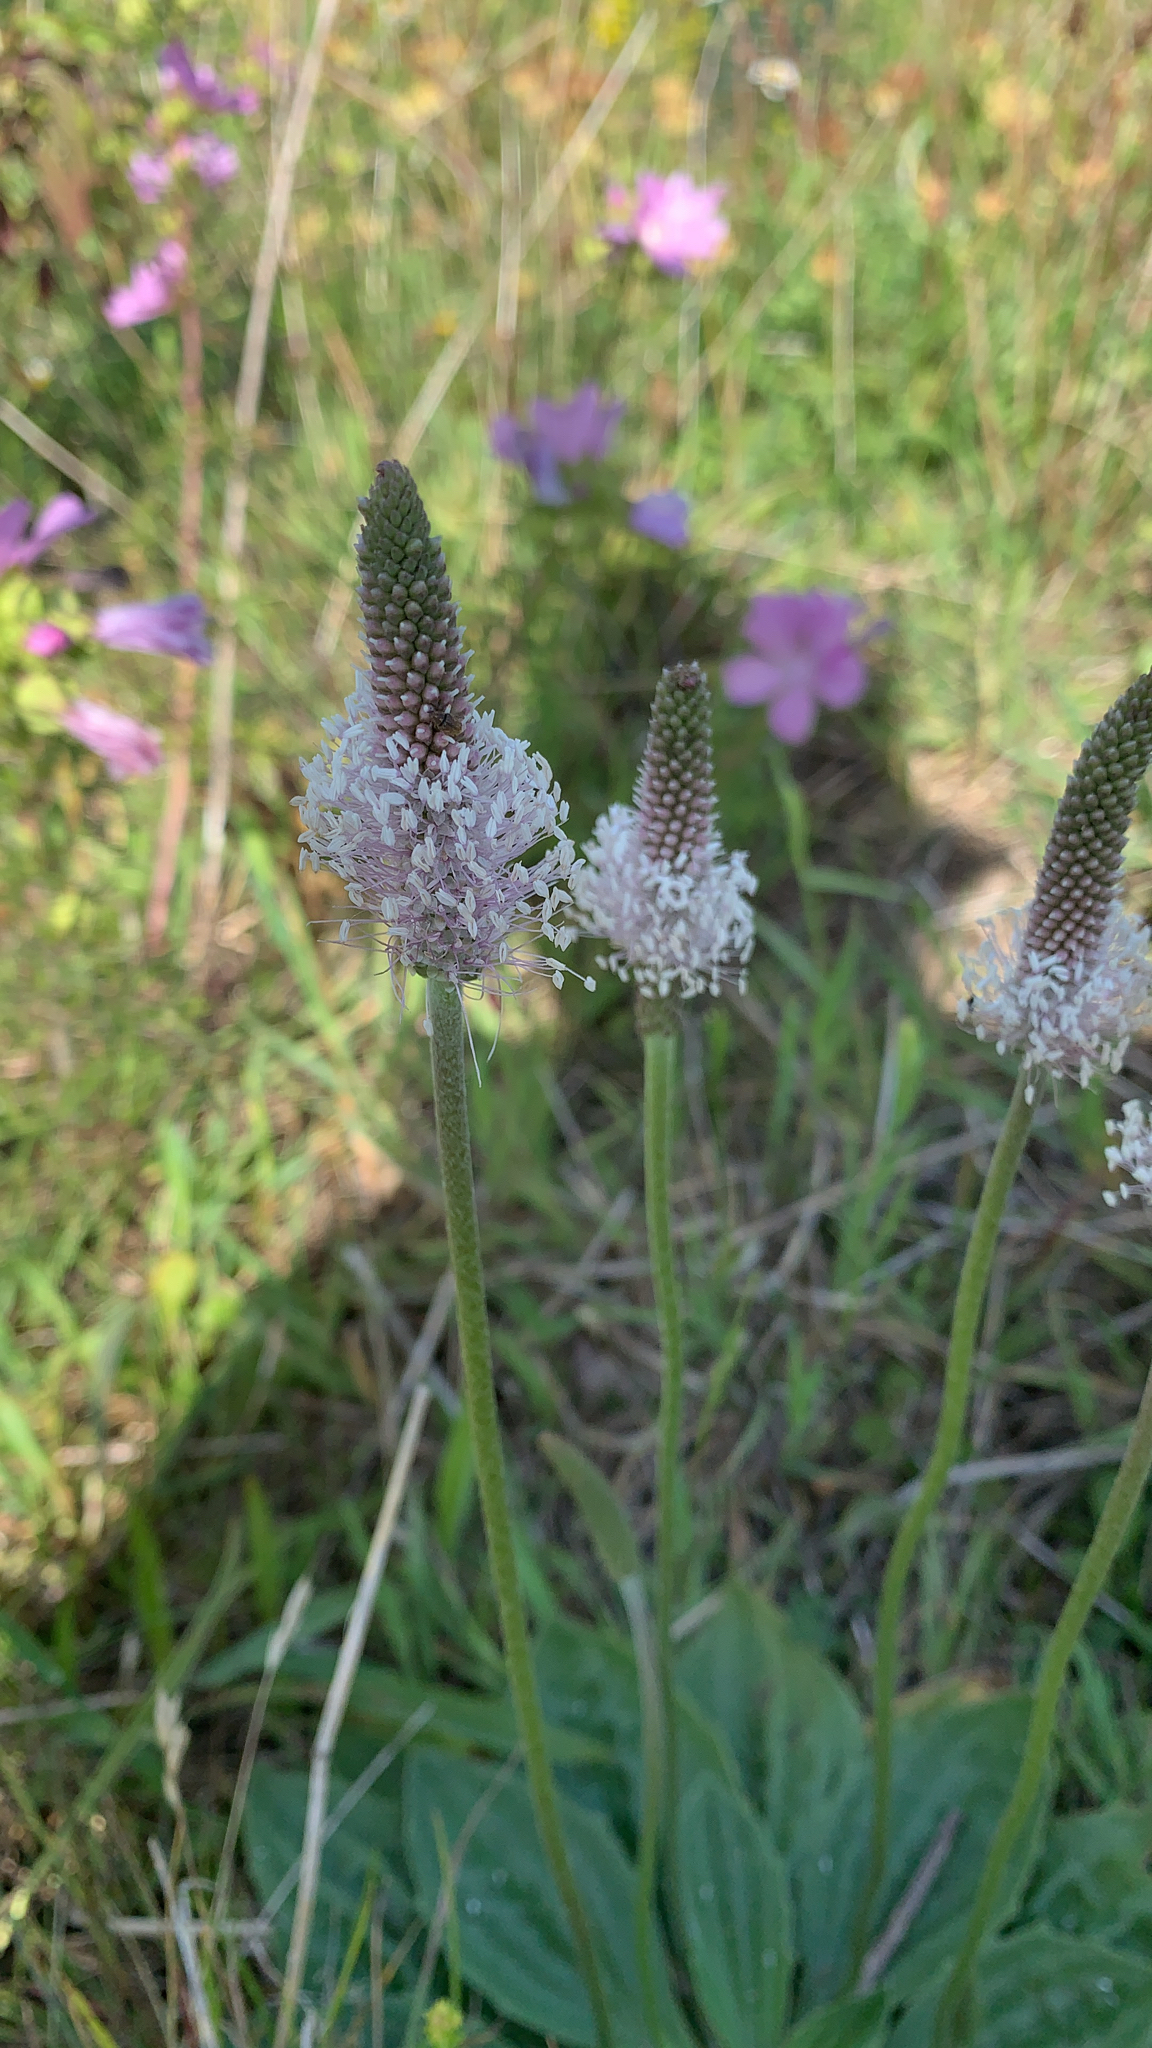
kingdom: Plantae
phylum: Tracheophyta
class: Magnoliopsida
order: Lamiales
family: Plantaginaceae
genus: Plantago
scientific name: Plantago media
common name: Hoary plantain
